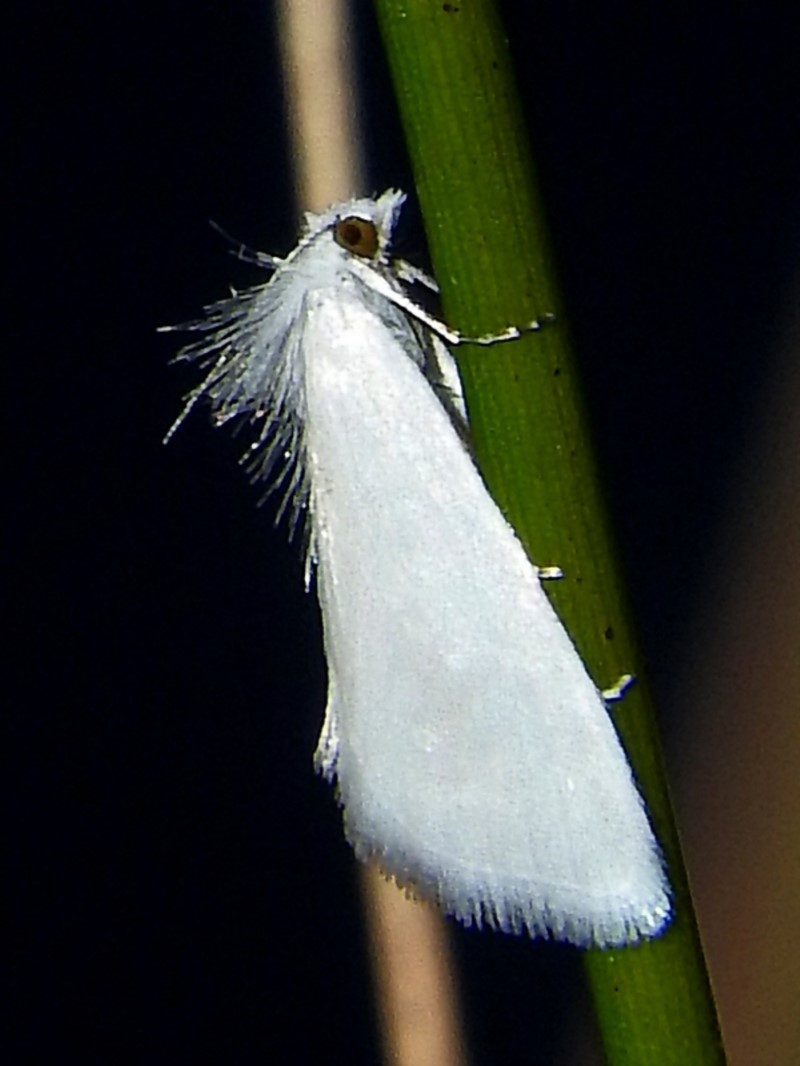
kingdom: Animalia
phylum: Arthropoda
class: Insecta
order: Lepidoptera
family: Crambidae
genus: Tipanaea
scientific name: Tipanaea patulella
